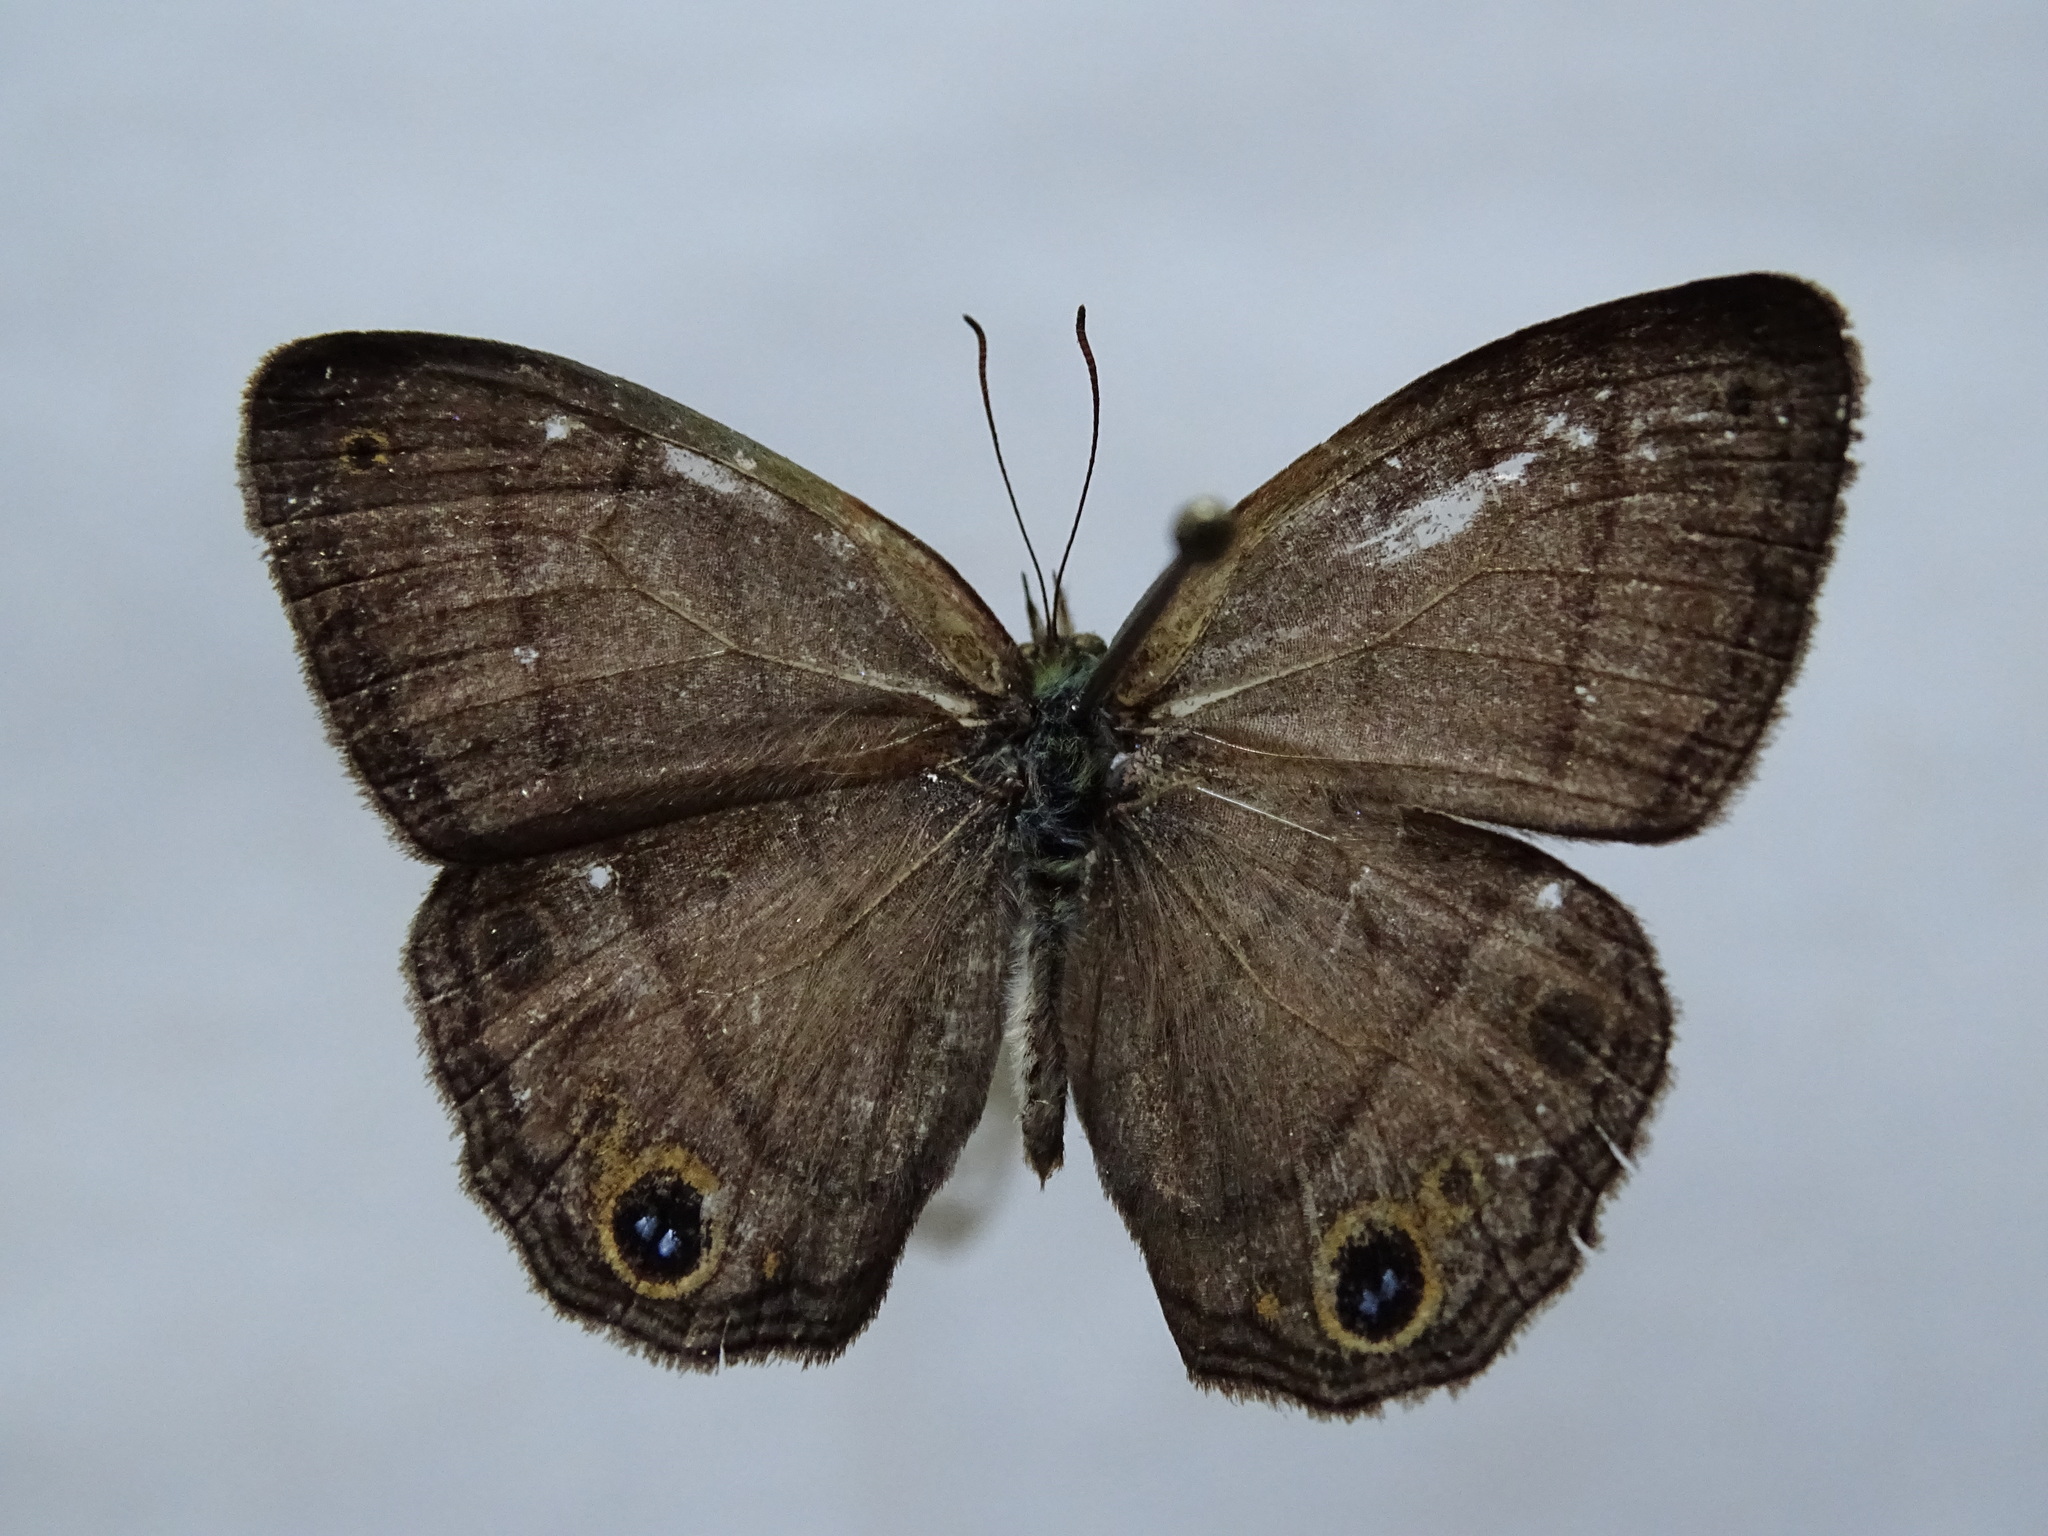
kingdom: Animalia
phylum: Arthropoda
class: Insecta
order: Lepidoptera
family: Nymphalidae
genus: Euptychia
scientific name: Euptychia Cissia pompilia
